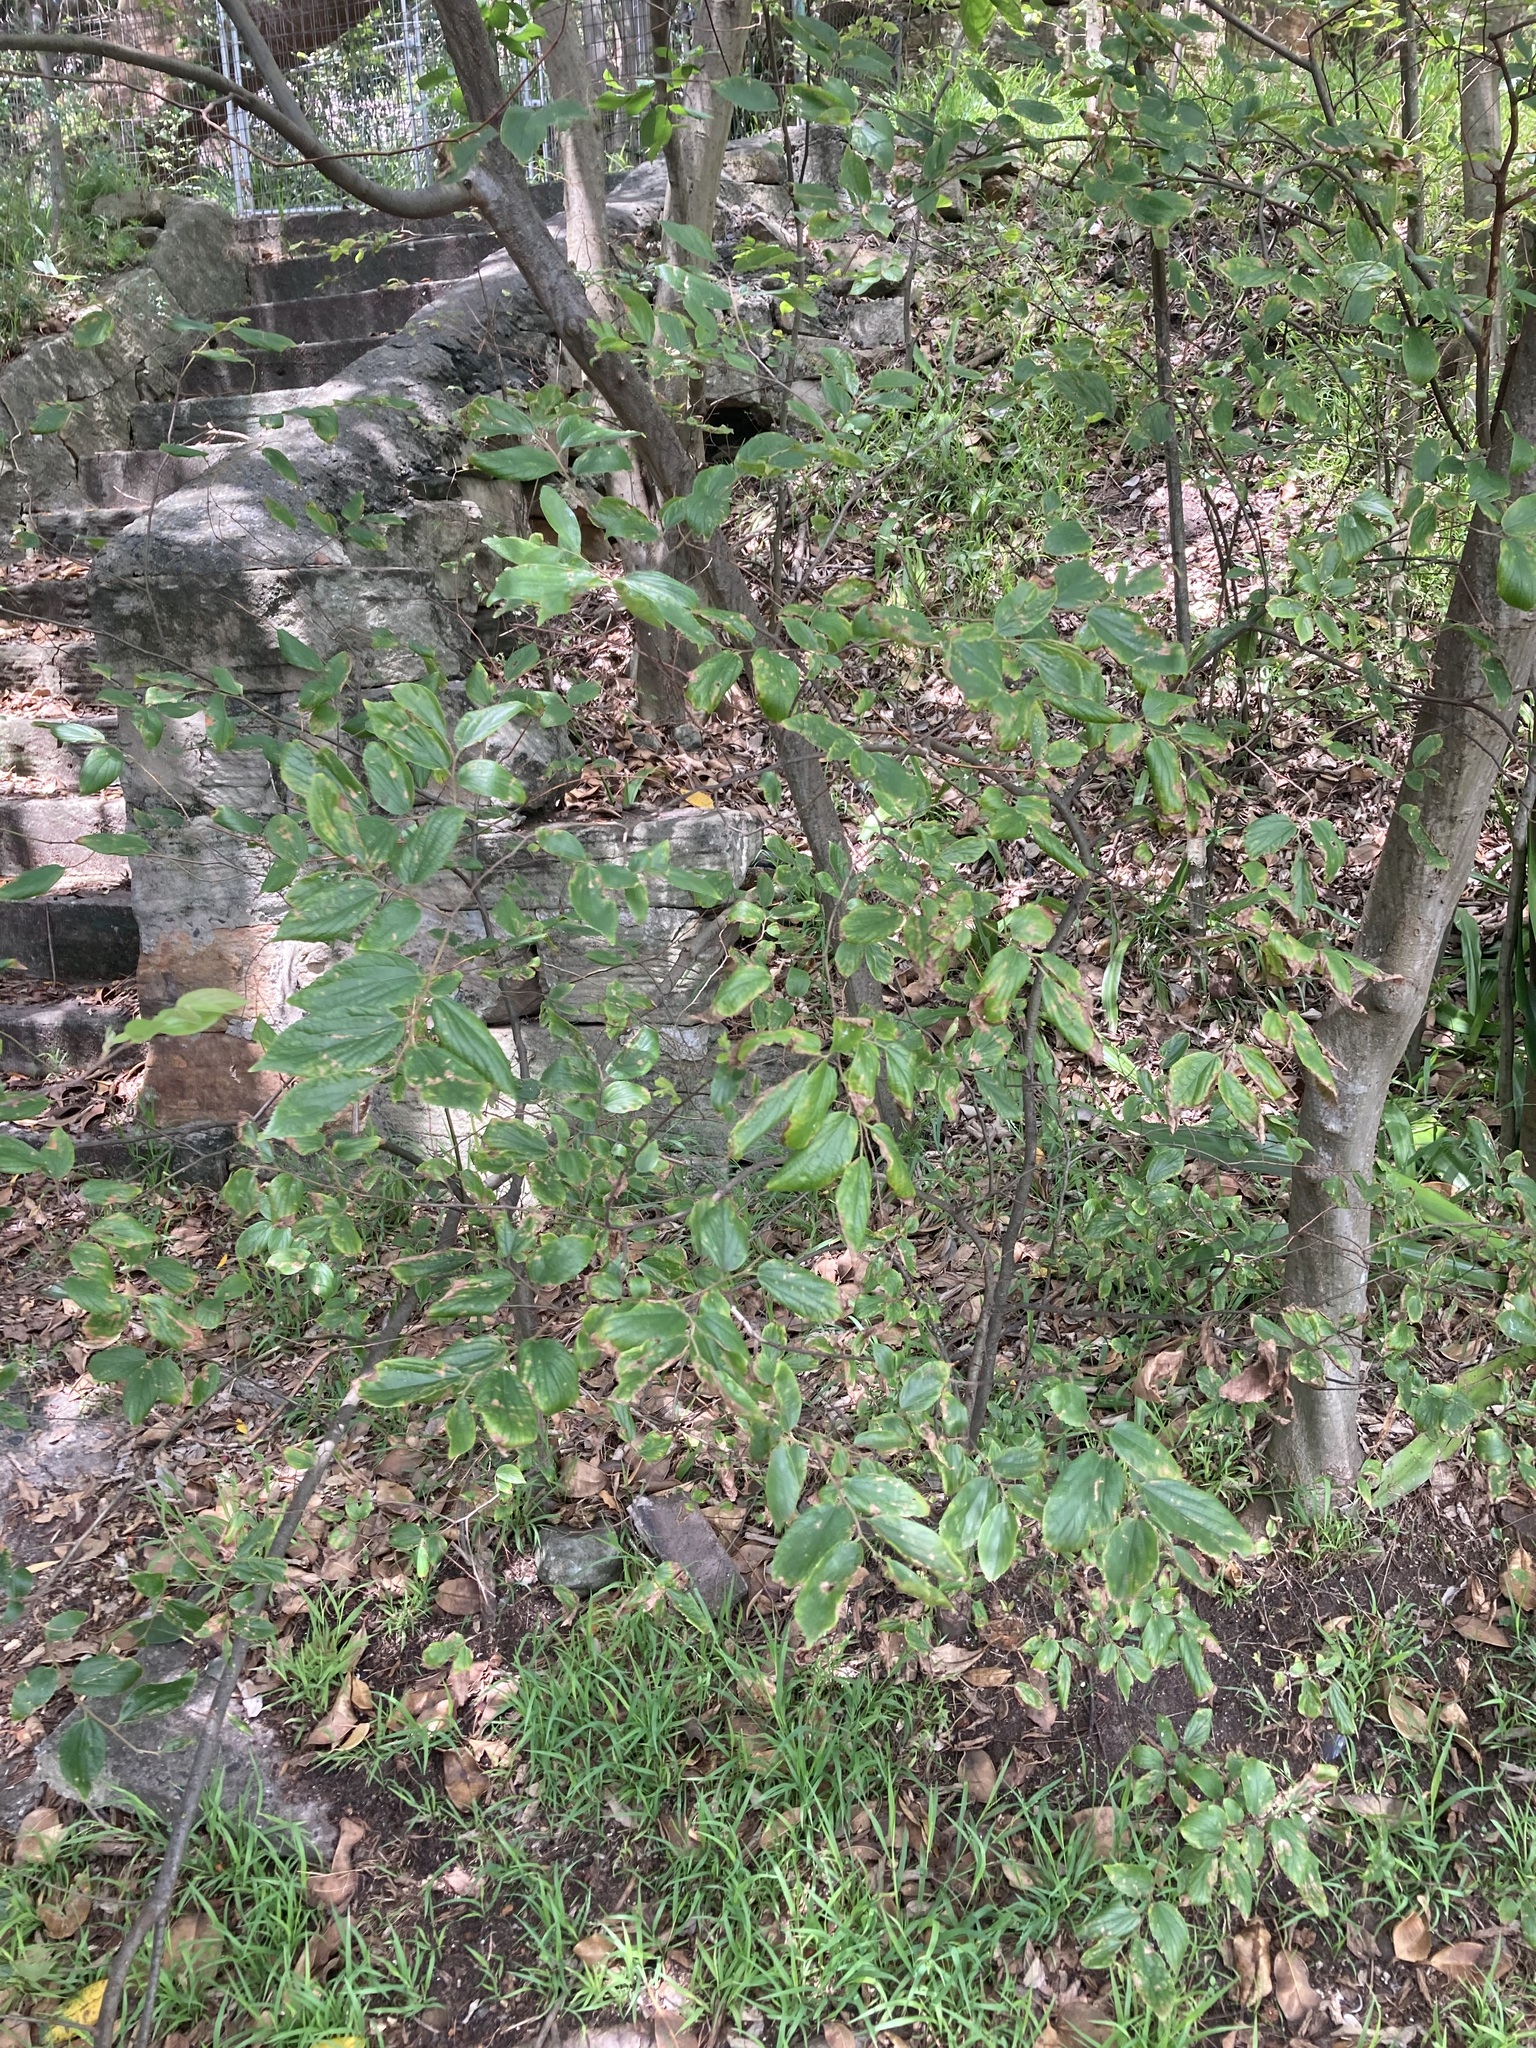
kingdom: Plantae
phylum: Tracheophyta
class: Magnoliopsida
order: Rosales
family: Cannabaceae
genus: Celtis
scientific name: Celtis sinensis
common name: Chinese hackberry
